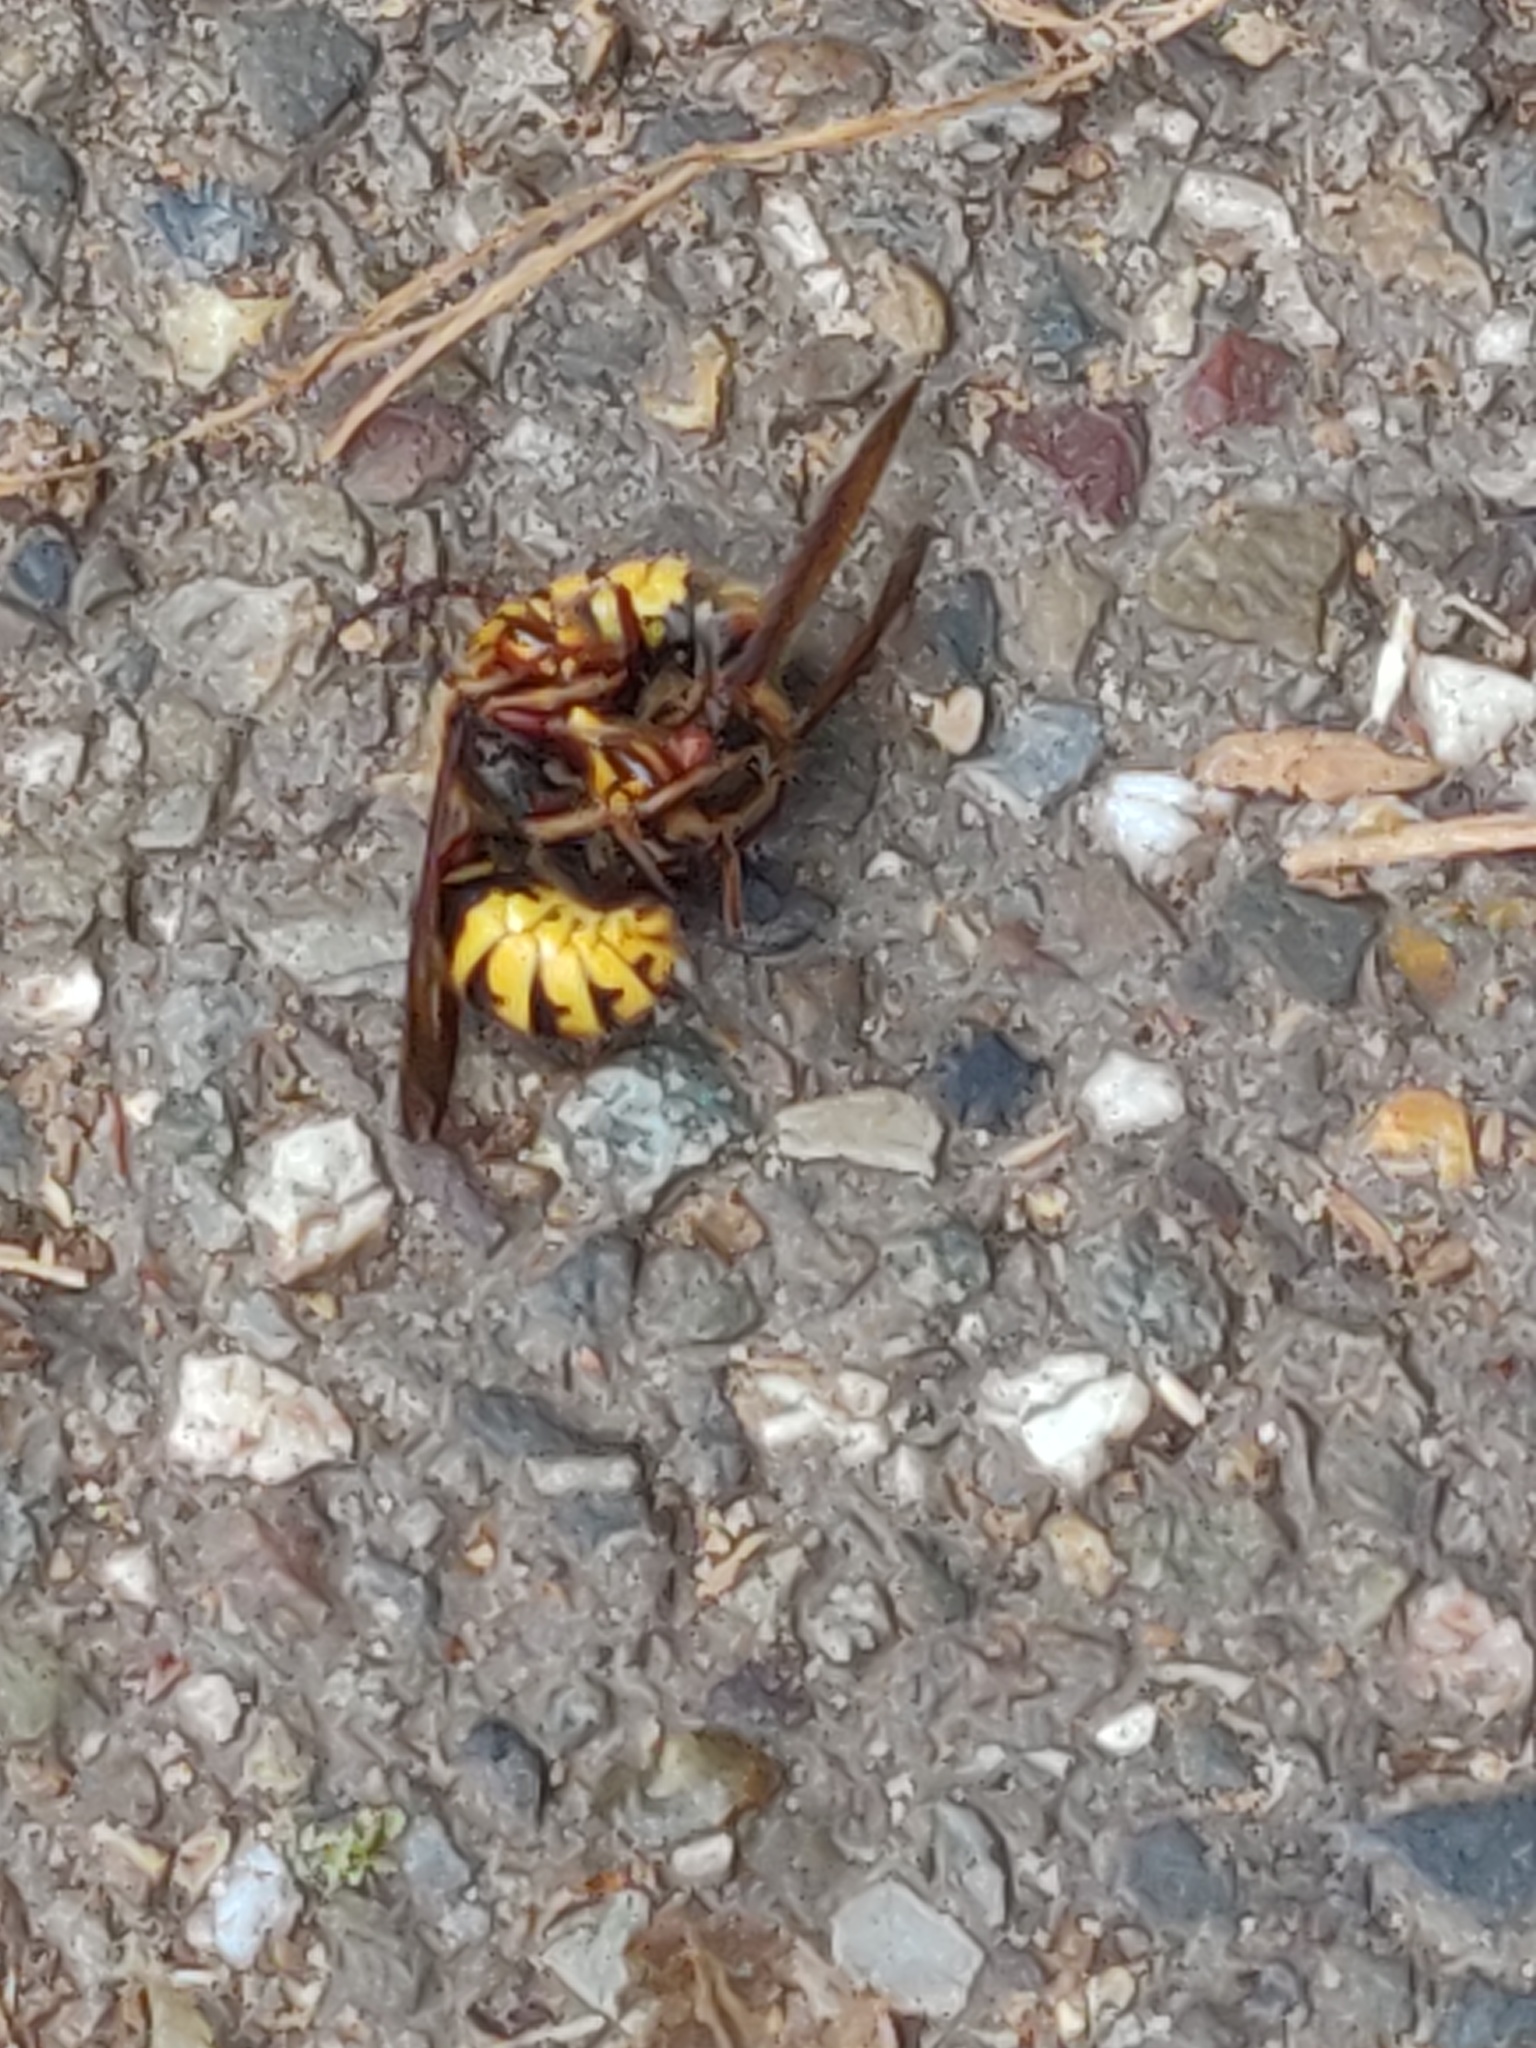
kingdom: Animalia
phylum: Arthropoda
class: Insecta
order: Hymenoptera
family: Vespidae
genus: Vespa
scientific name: Vespa crabro
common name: Hornet
